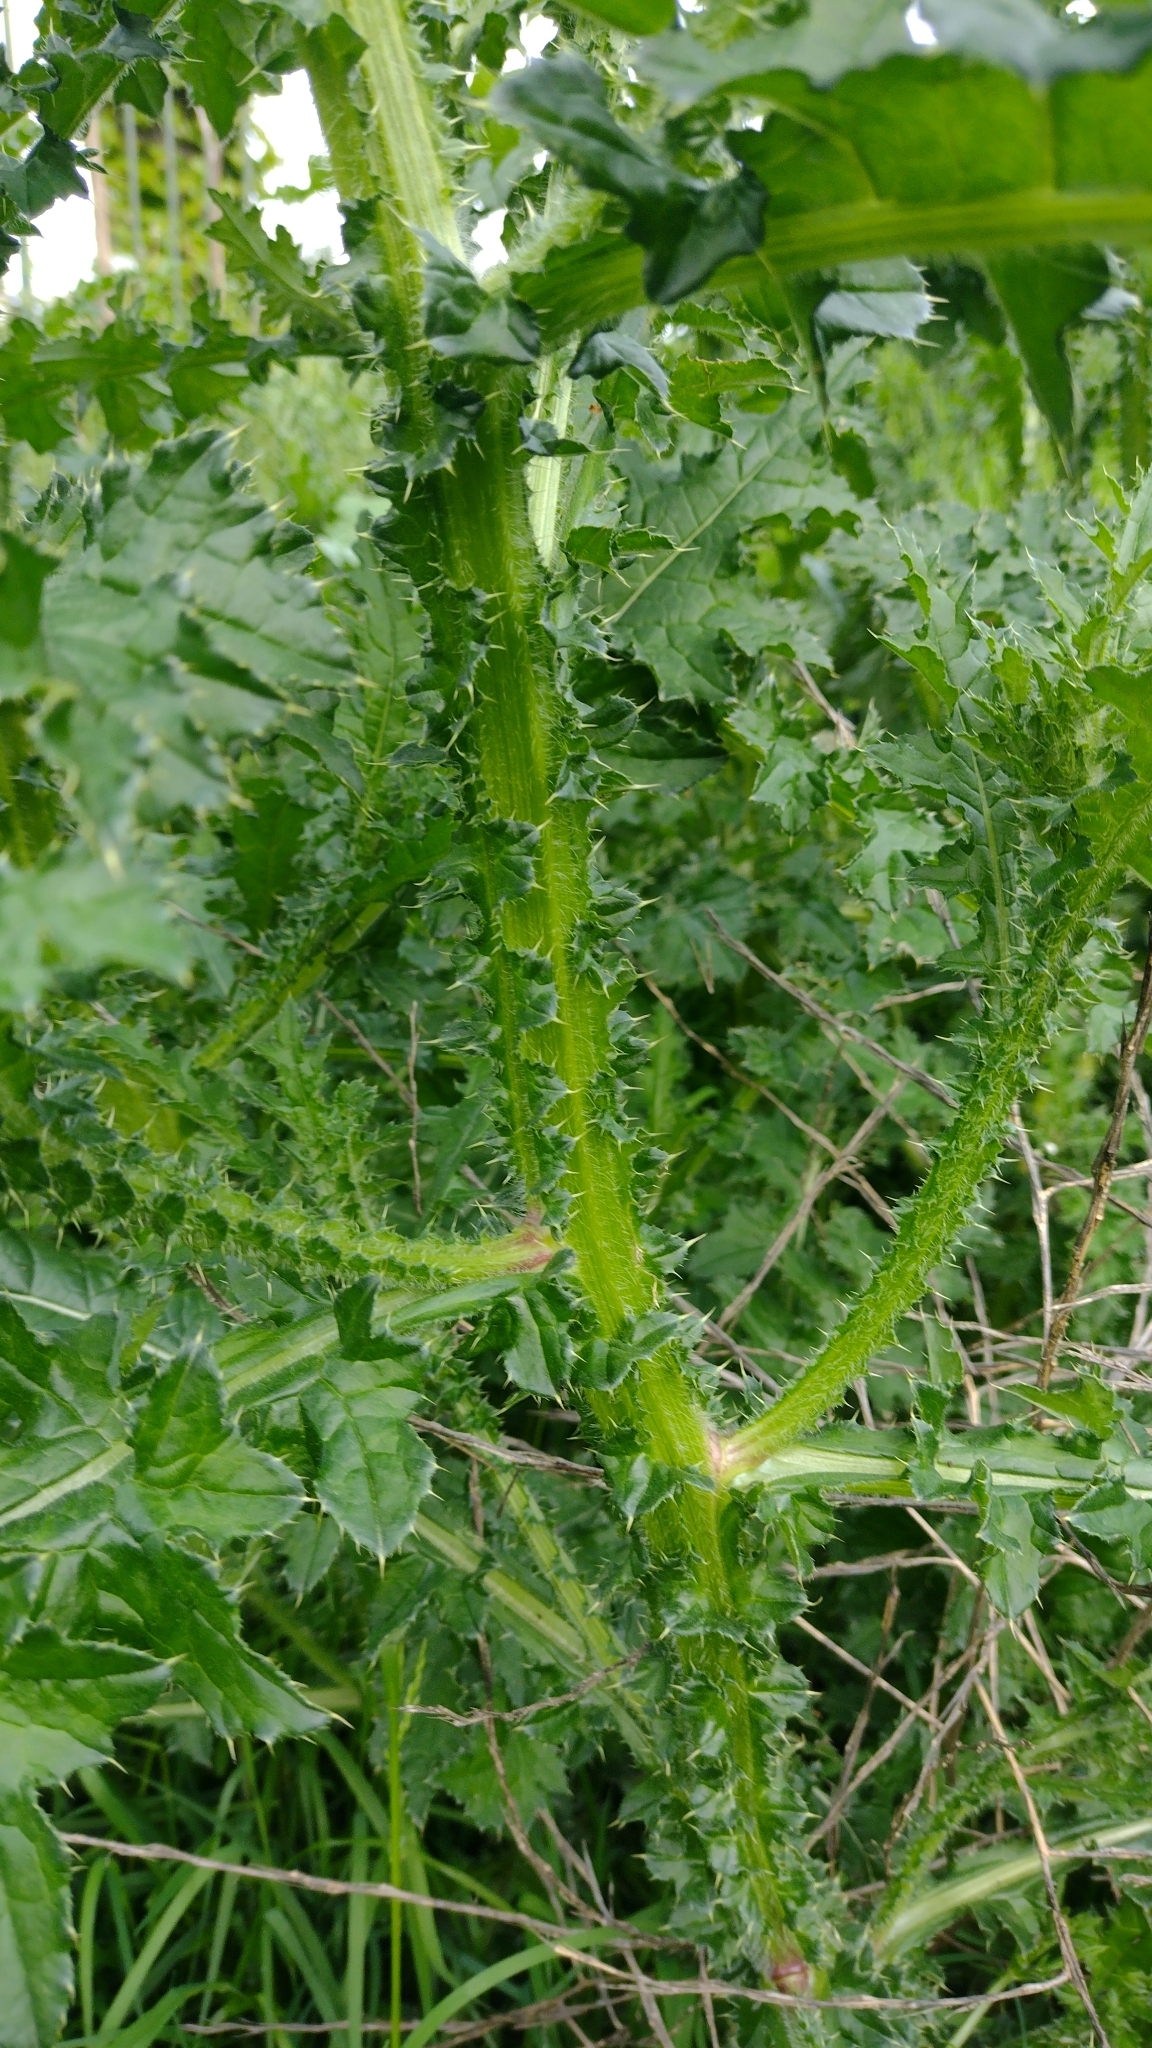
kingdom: Plantae
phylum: Tracheophyta
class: Magnoliopsida
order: Asterales
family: Asteraceae
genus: Carduus
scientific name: Carduus crispus
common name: Welted thistle
